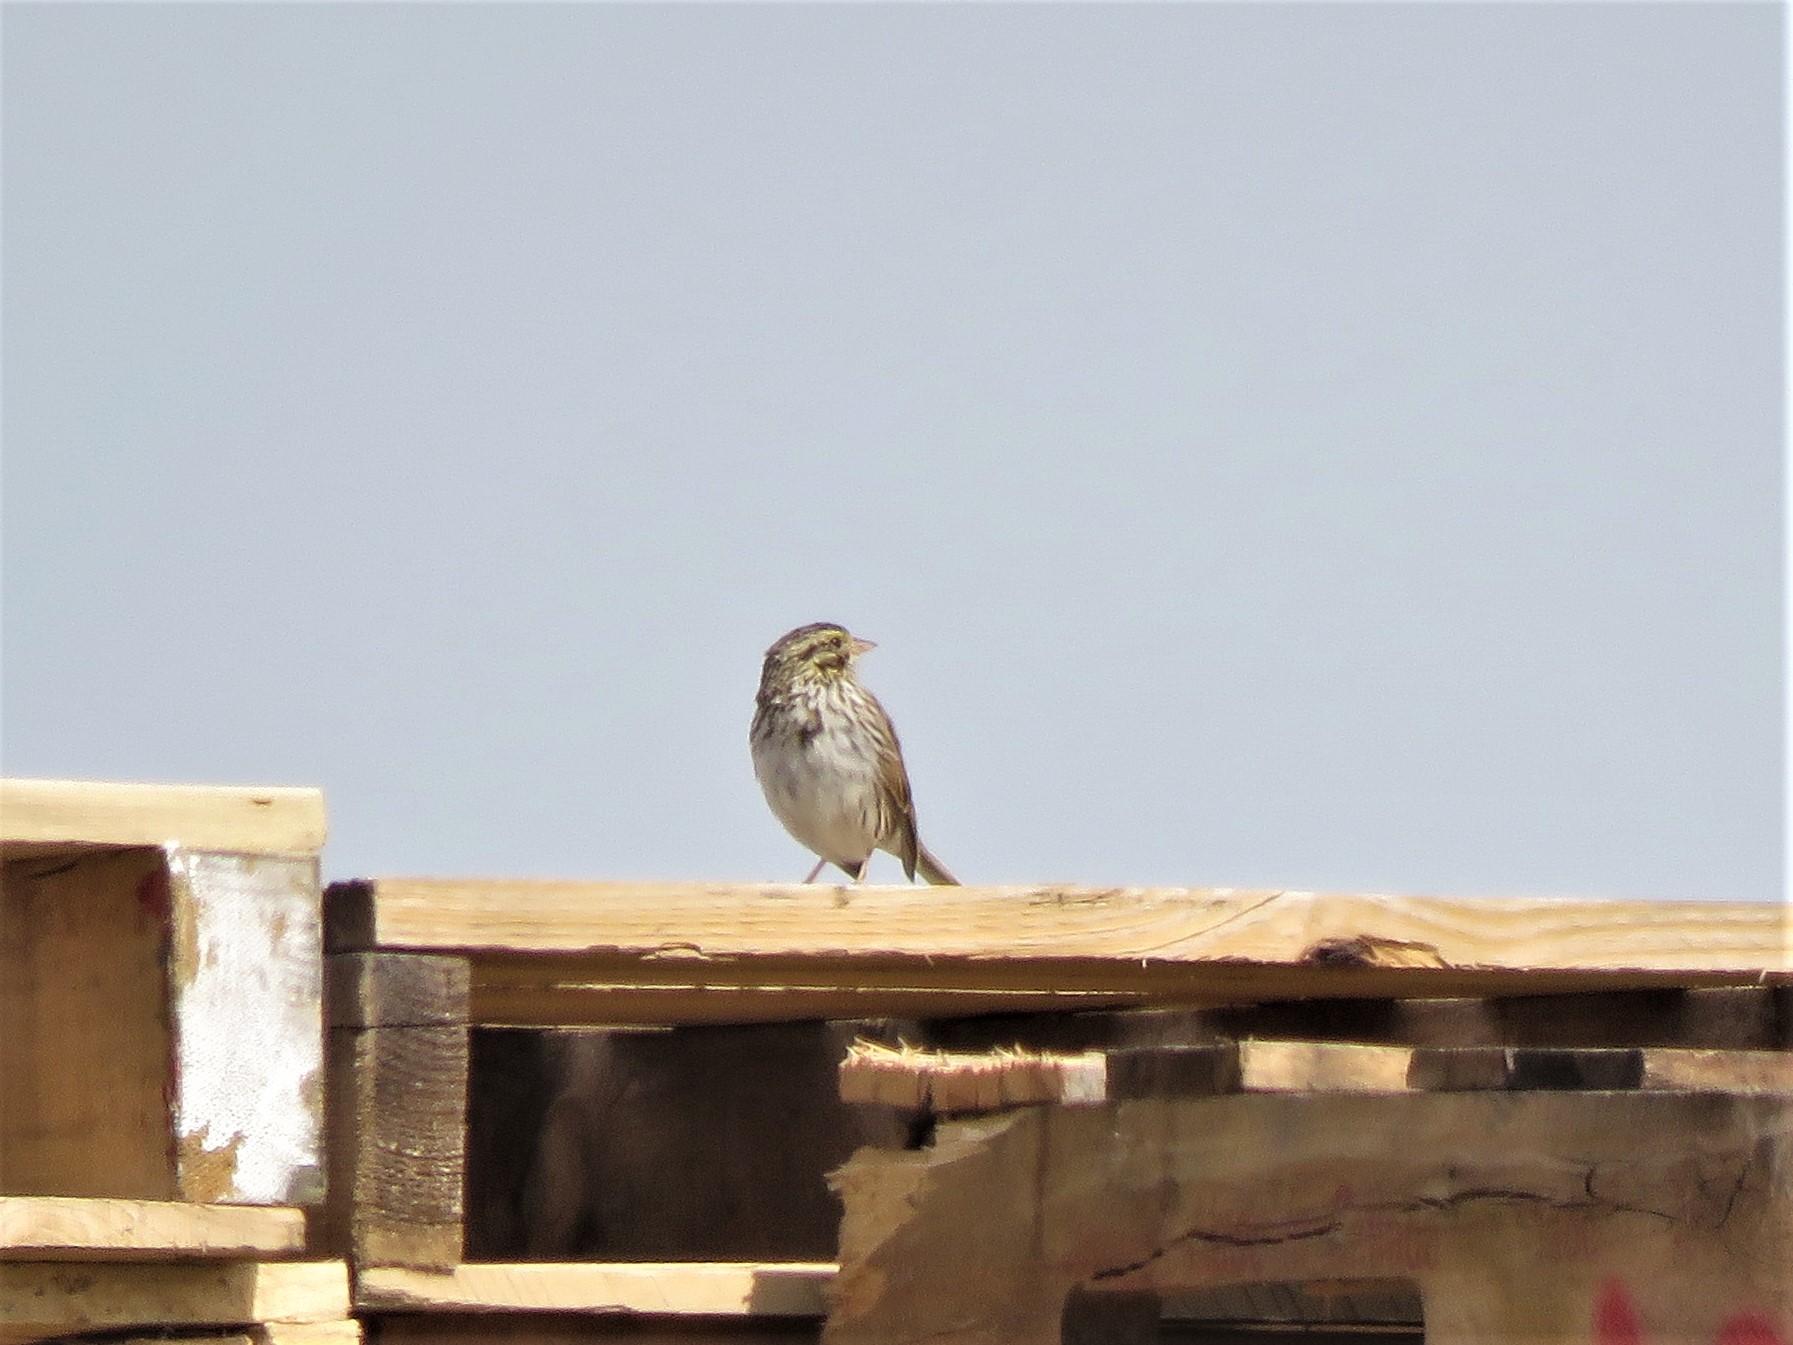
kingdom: Animalia
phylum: Chordata
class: Aves
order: Passeriformes
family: Passerellidae
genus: Passerculus
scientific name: Passerculus sandwichensis
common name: Savannah sparrow
